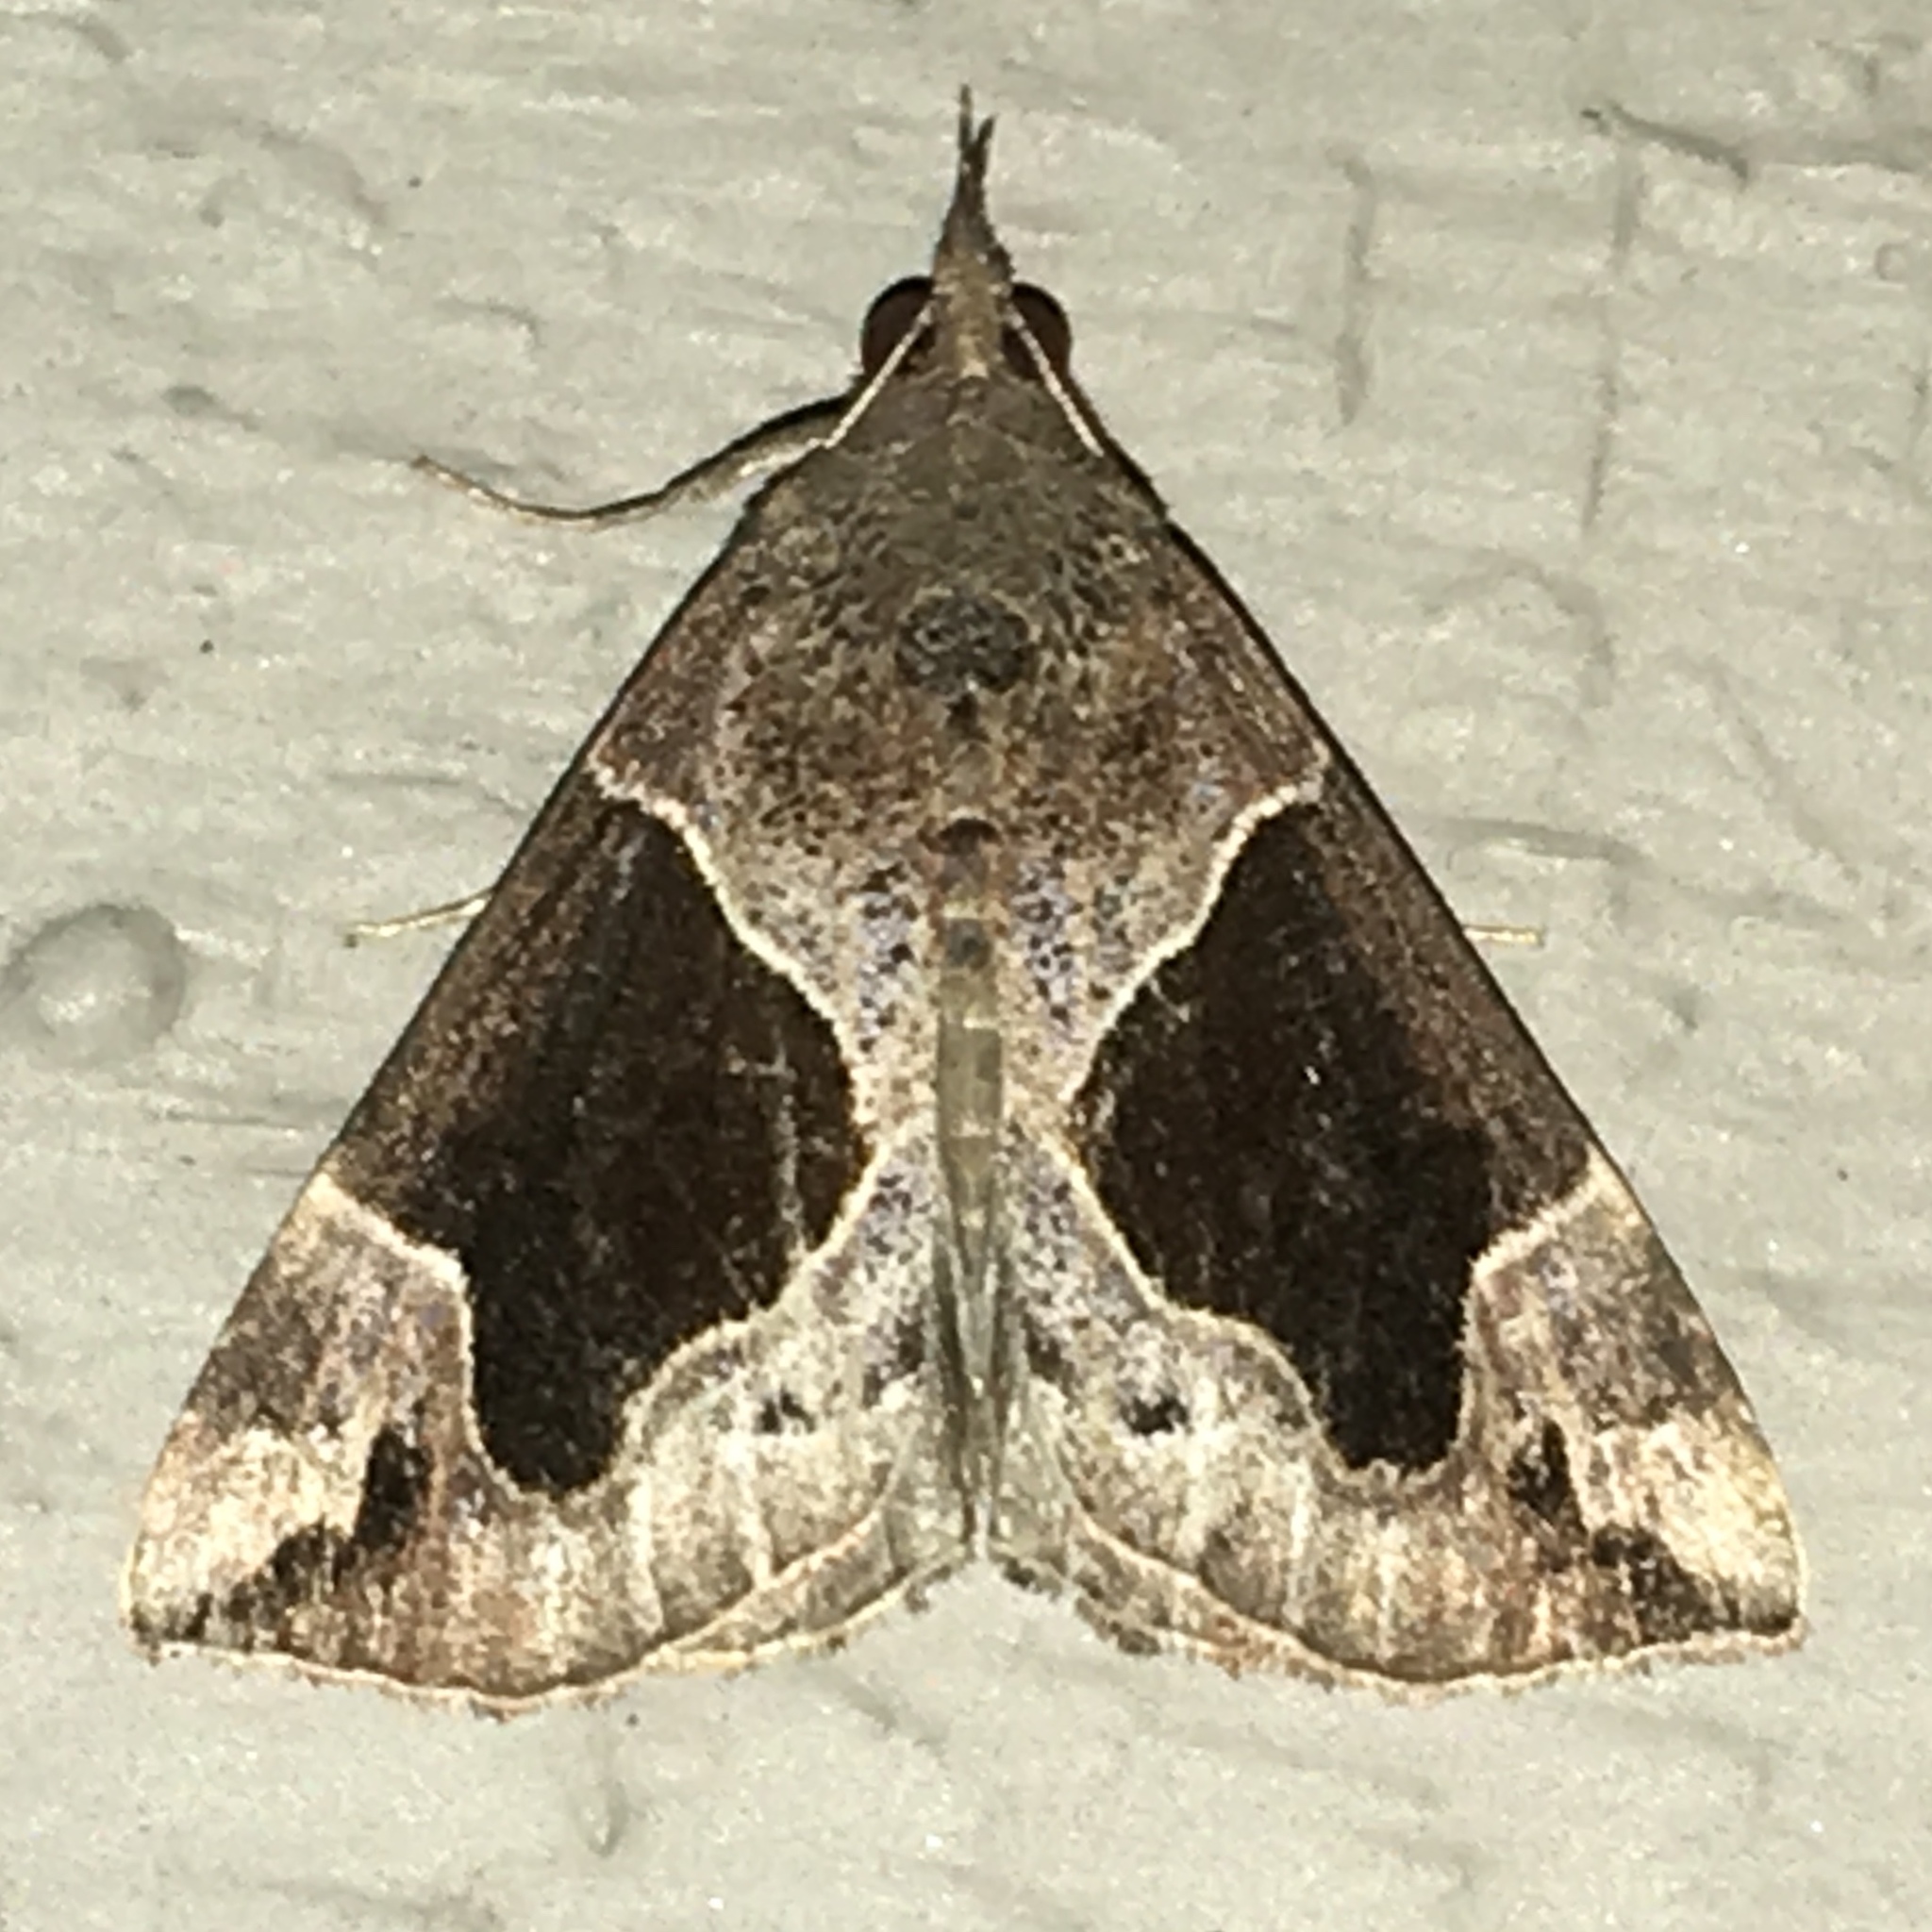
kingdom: Animalia
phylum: Arthropoda
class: Insecta
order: Lepidoptera
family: Erebidae
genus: Hypena
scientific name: Hypena manalis
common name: Flowing-line bomolocha moth
